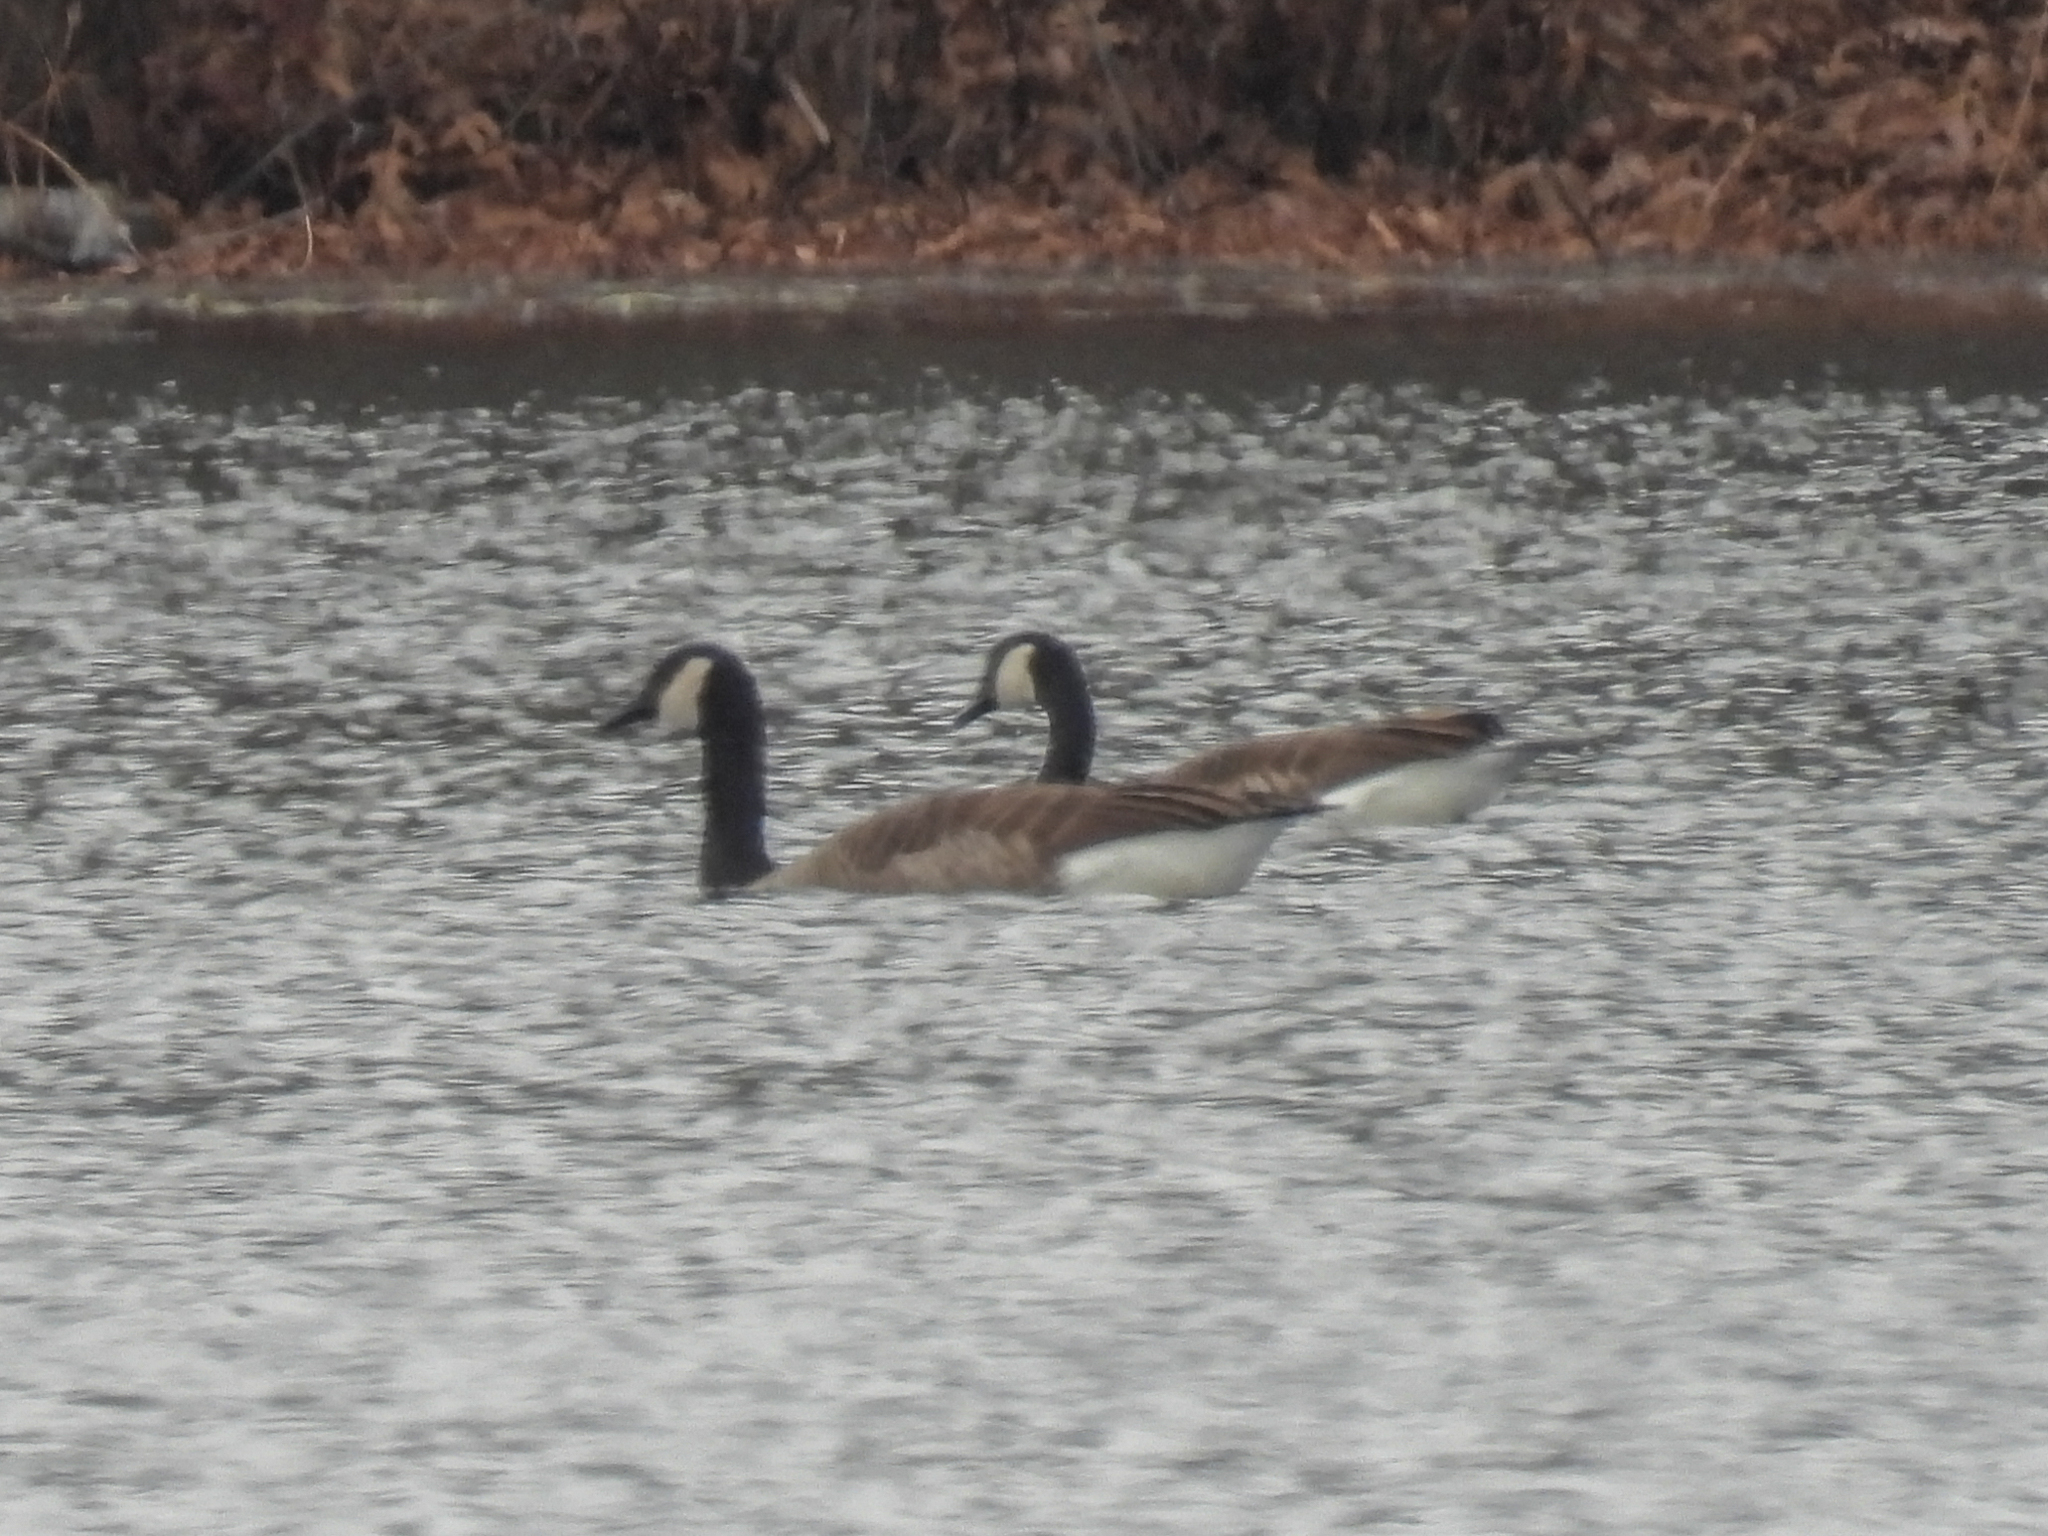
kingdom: Animalia
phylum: Chordata
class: Aves
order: Anseriformes
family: Anatidae
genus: Branta
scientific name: Branta canadensis
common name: Canada goose
